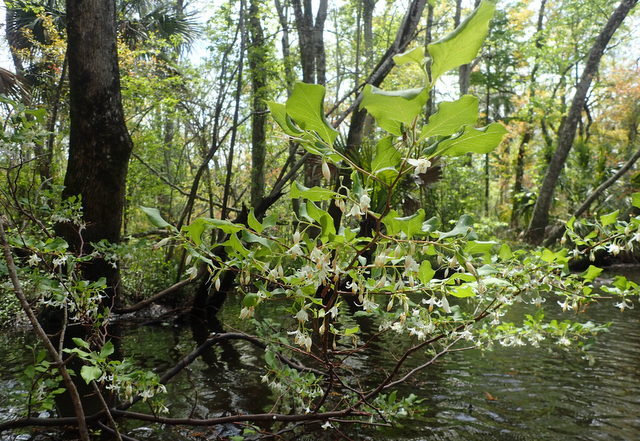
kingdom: Plantae
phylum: Tracheophyta
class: Magnoliopsida
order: Ericales
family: Styracaceae
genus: Styrax
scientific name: Styrax americanus
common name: American snowbell
